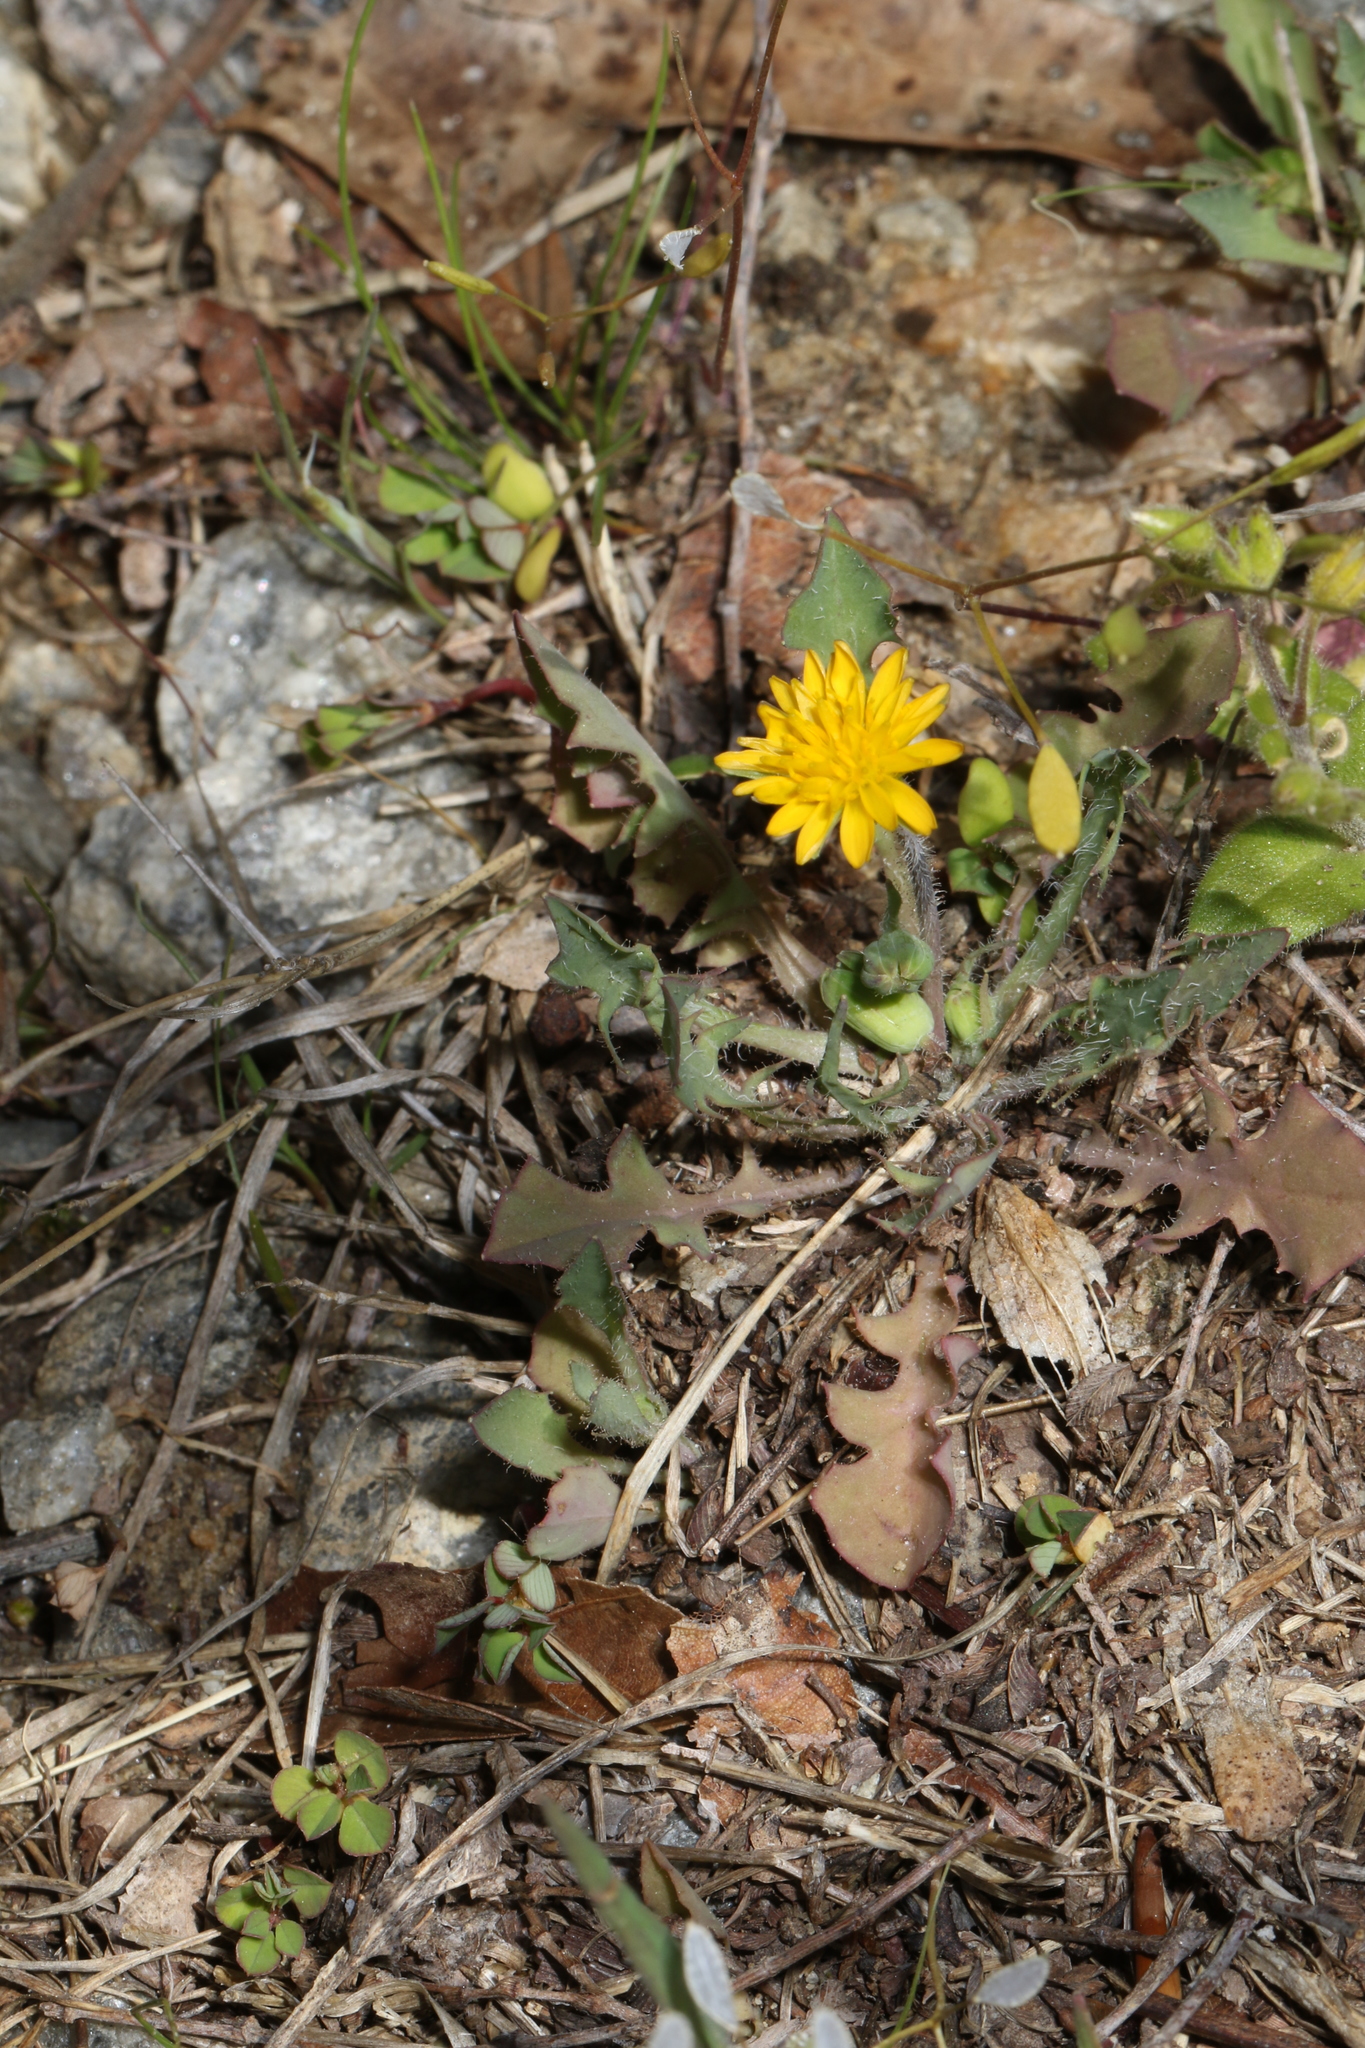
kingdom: Plantae
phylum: Tracheophyta
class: Magnoliopsida
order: Asterales
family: Asteraceae
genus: Krigia
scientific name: Krigia virginica
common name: Virginia dwarf-dandelion
